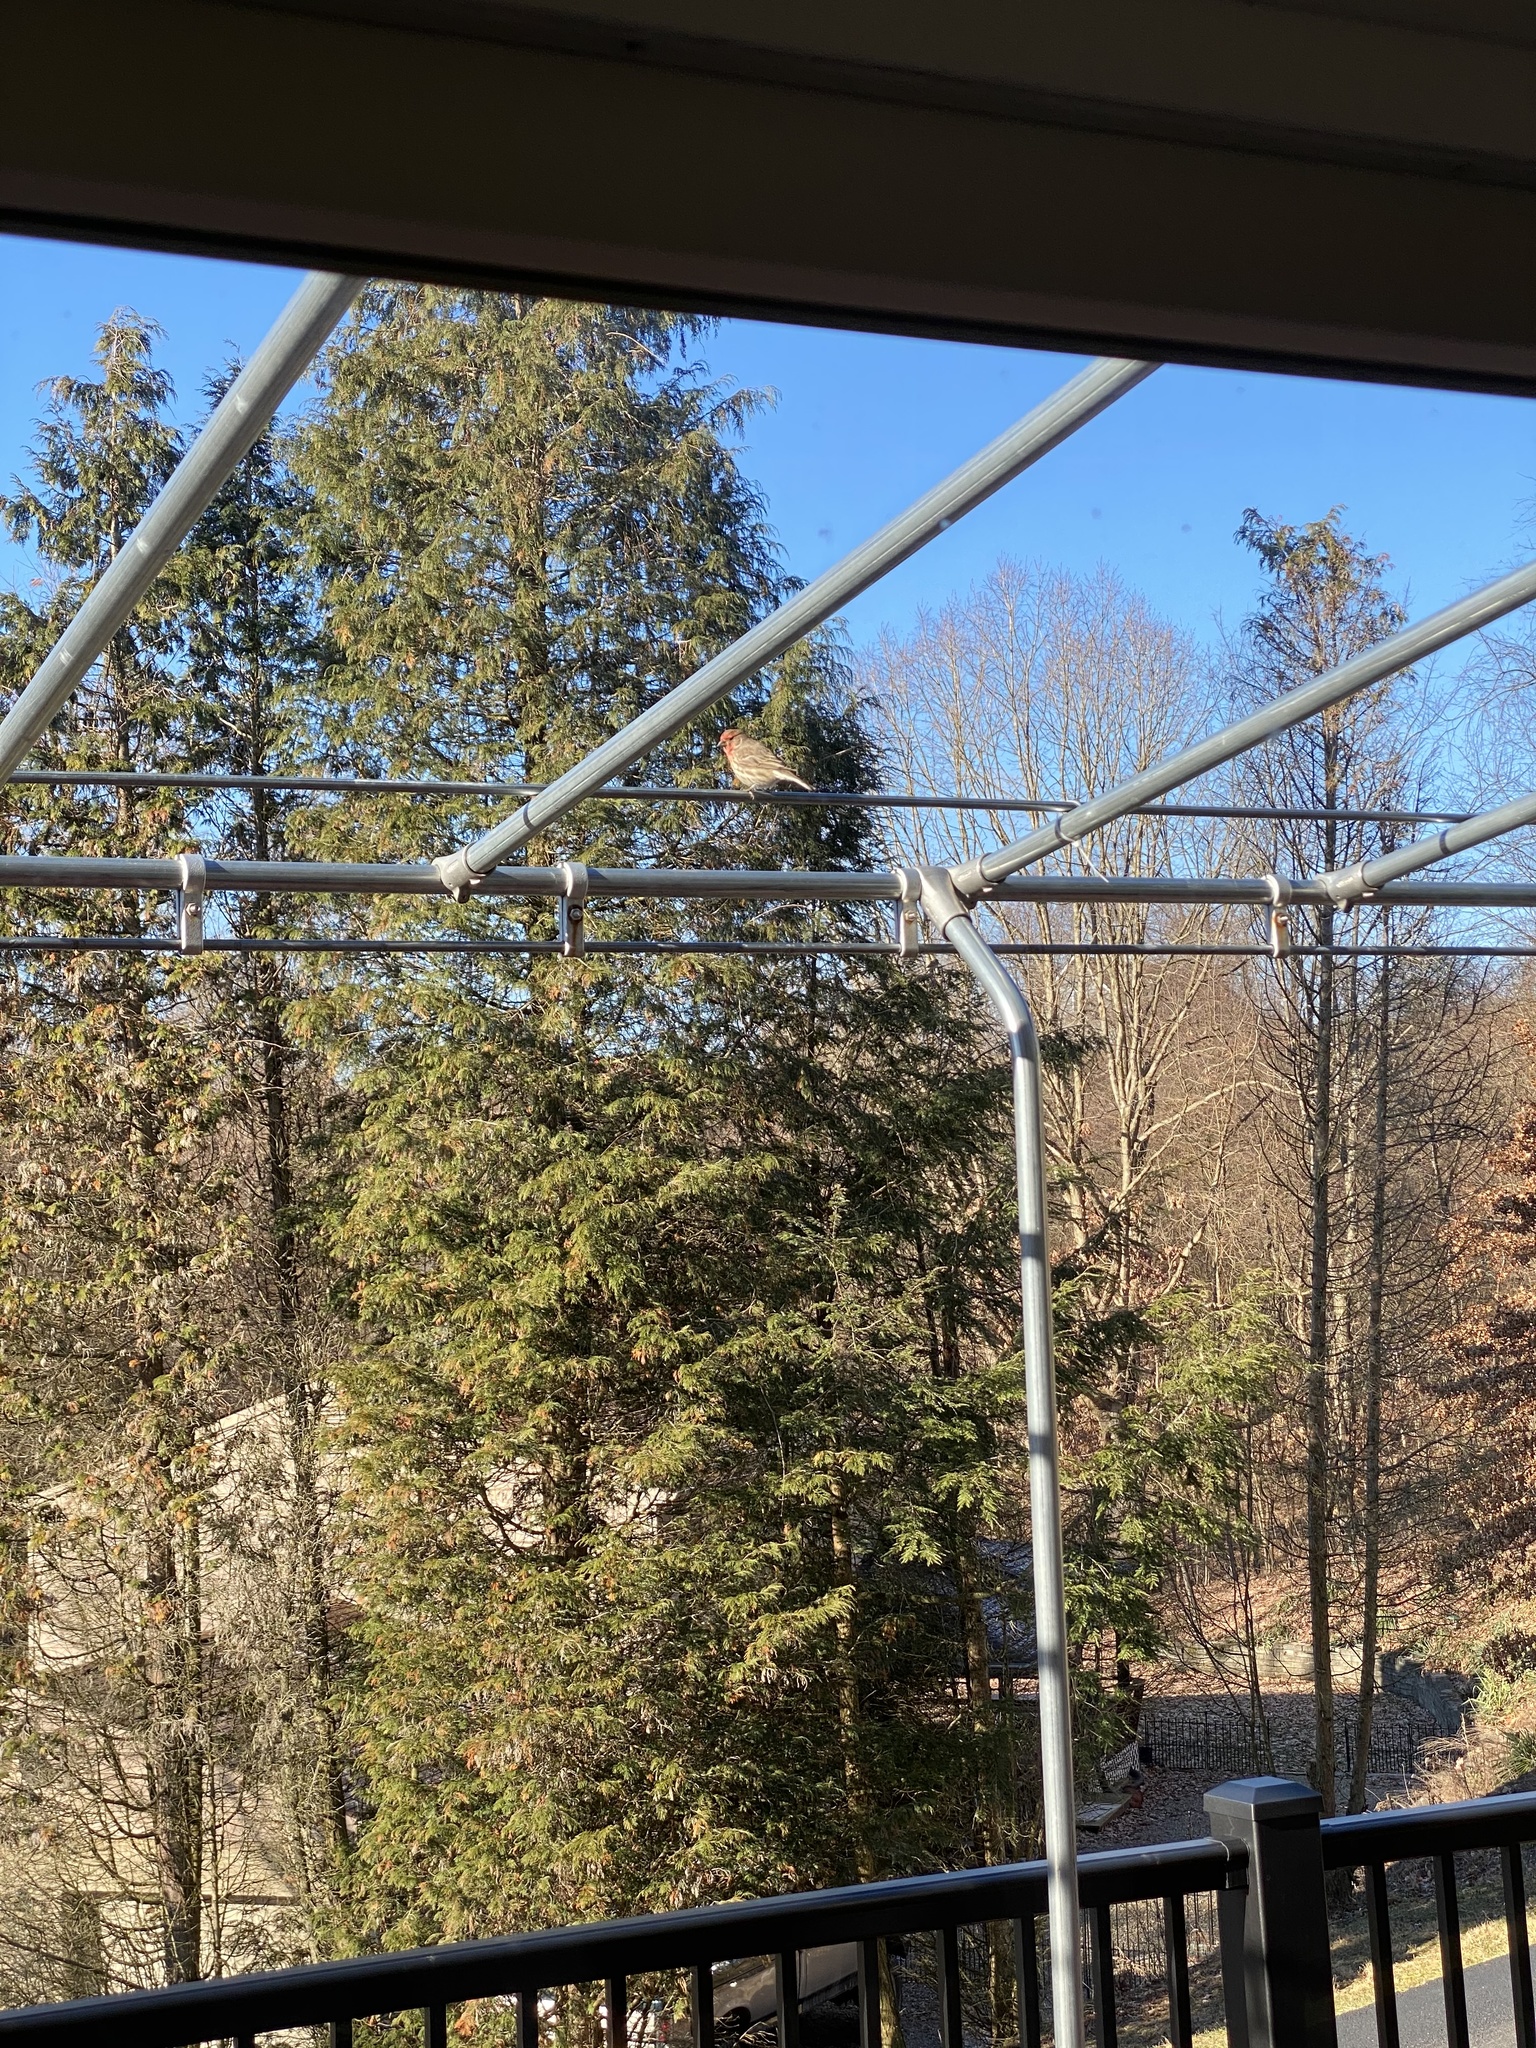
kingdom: Animalia
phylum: Chordata
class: Aves
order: Passeriformes
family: Fringillidae
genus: Haemorhous
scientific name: Haemorhous mexicanus
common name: House finch
